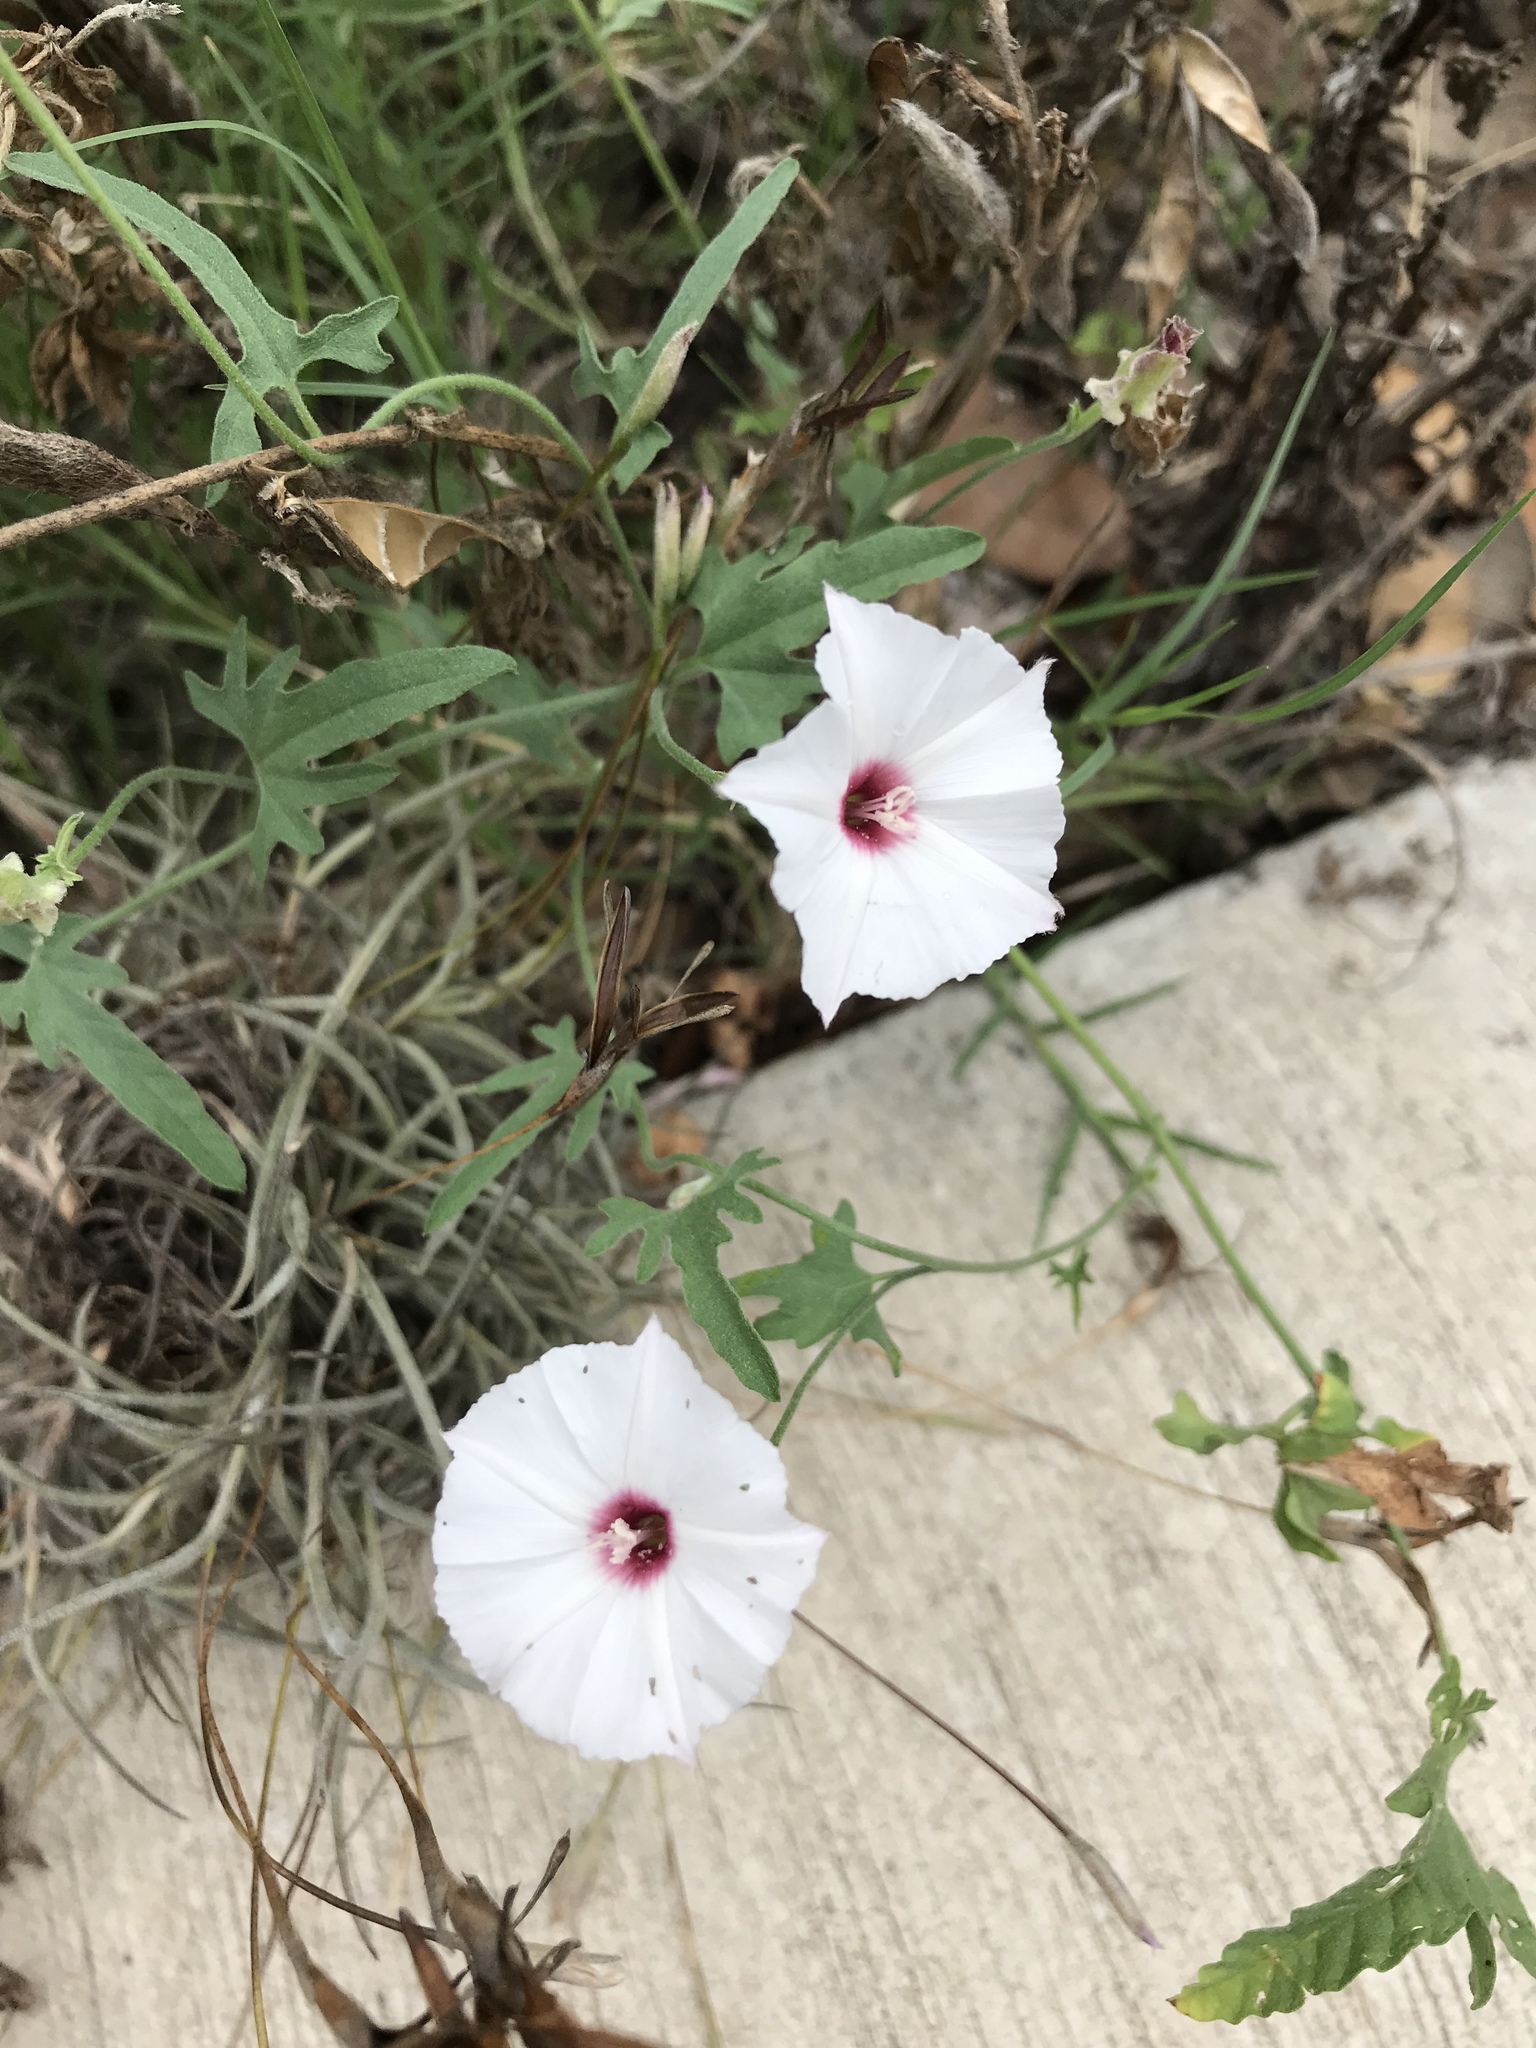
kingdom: Plantae
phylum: Tracheophyta
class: Magnoliopsida
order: Solanales
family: Convolvulaceae
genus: Convolvulus
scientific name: Convolvulus equitans
